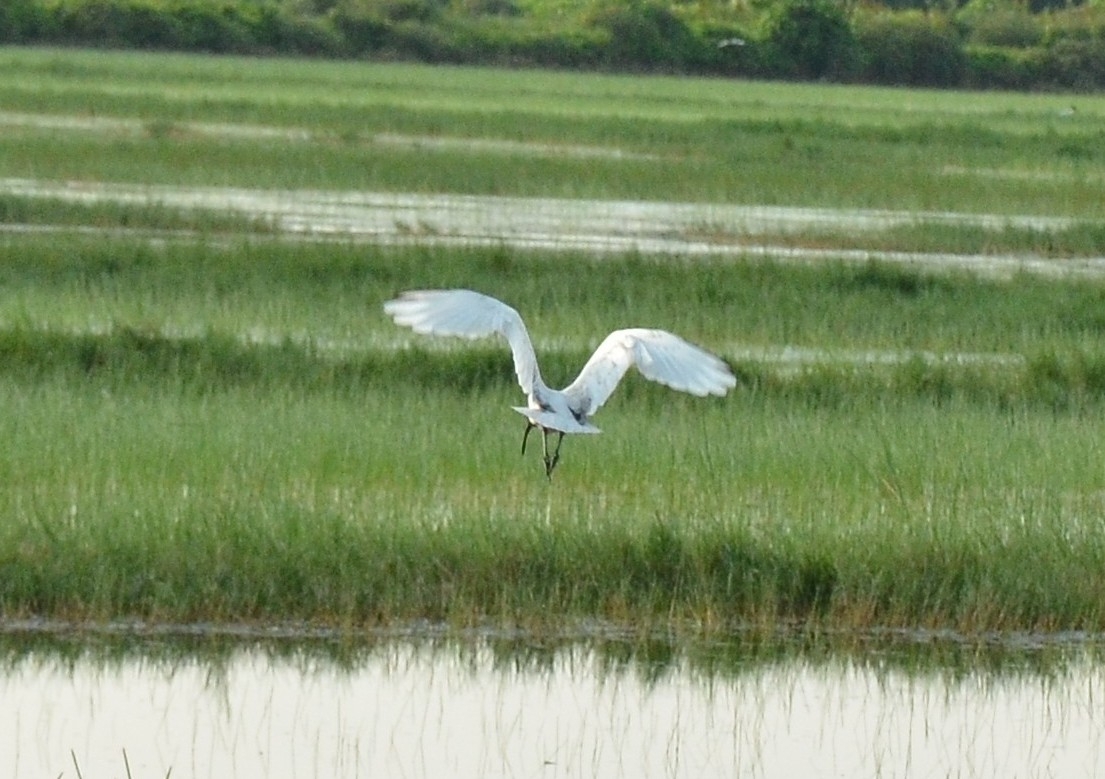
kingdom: Animalia
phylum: Chordata
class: Aves
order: Pelecaniformes
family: Threskiornithidae
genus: Threskiornis
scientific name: Threskiornis melanocephalus
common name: Black-headed ibis
